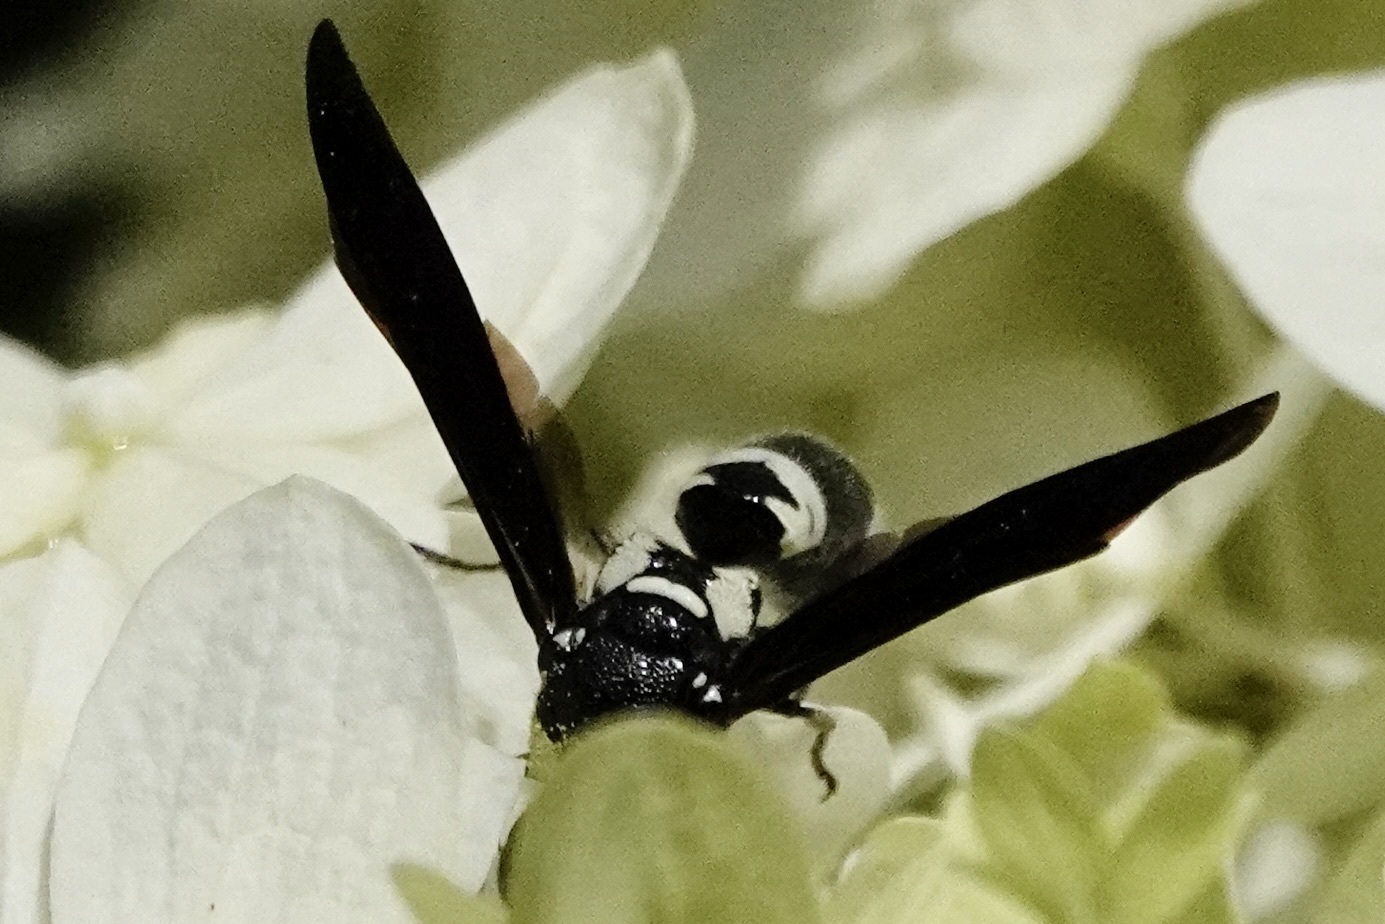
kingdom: Animalia
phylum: Arthropoda
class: Insecta
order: Hymenoptera
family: Eumenidae
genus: Pseudodynerus
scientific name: Pseudodynerus quadrisectus
